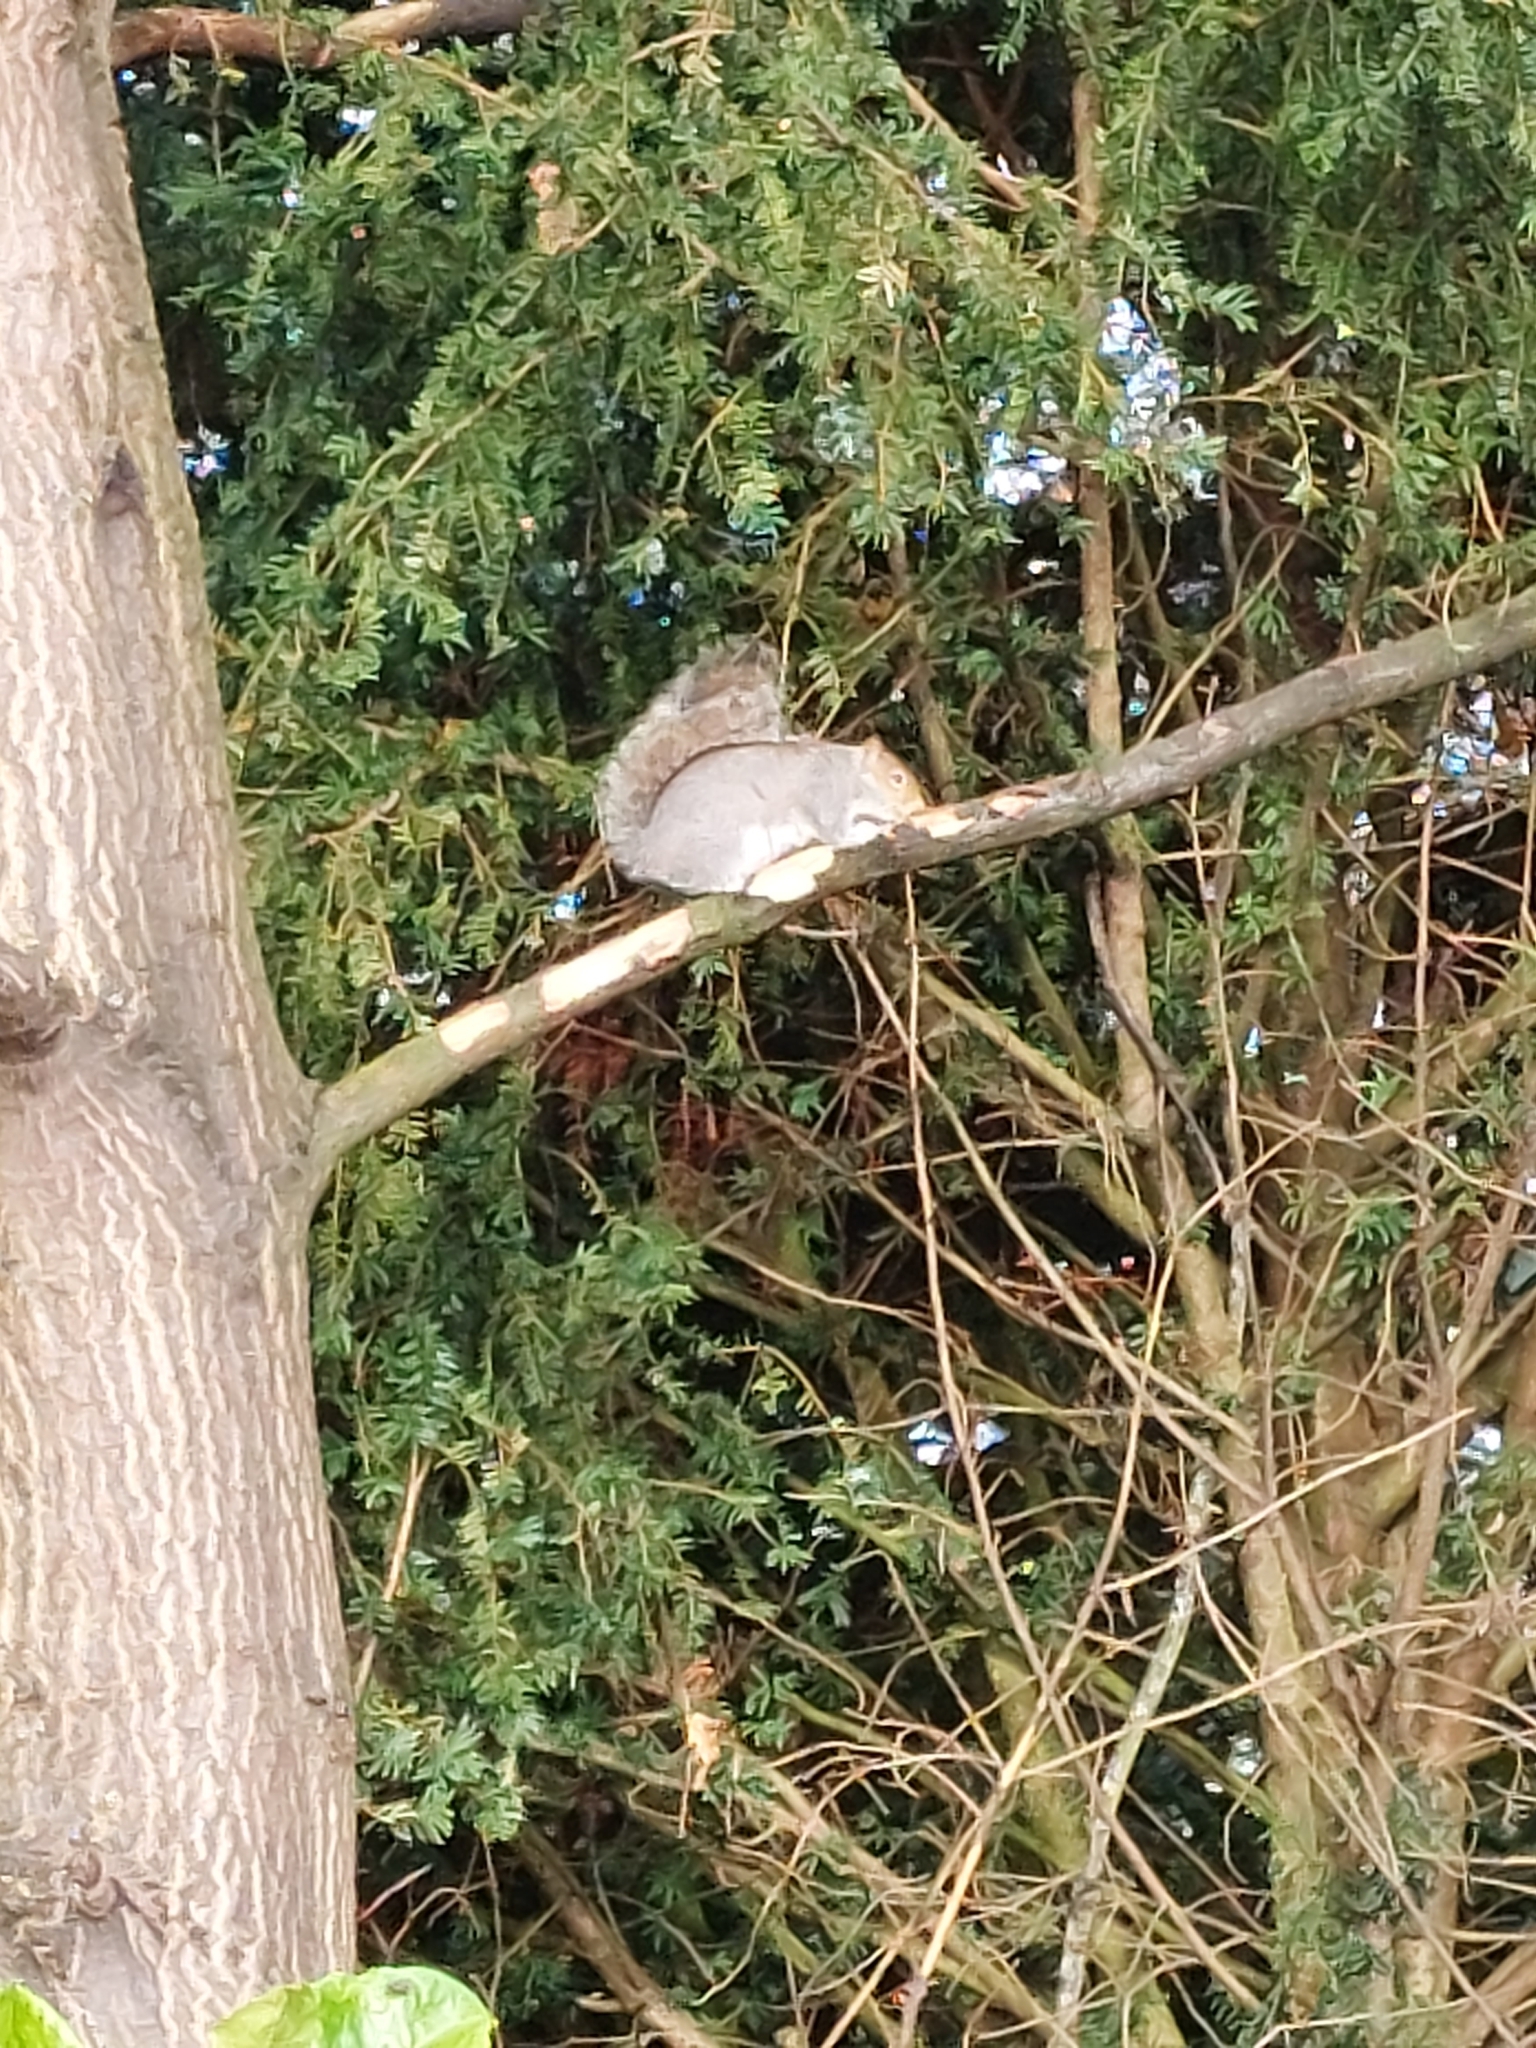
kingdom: Animalia
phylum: Chordata
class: Mammalia
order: Rodentia
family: Sciuridae
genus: Sciurus
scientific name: Sciurus carolinensis
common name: Eastern gray squirrel
